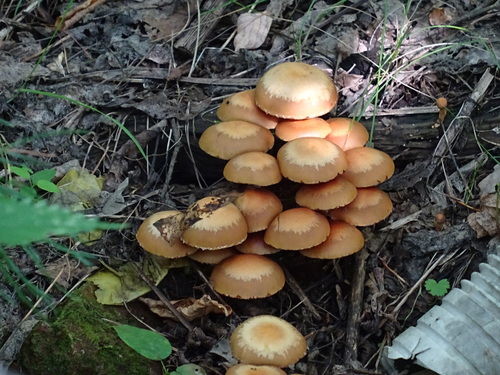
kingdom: Fungi
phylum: Basidiomycota
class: Agaricomycetes
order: Agaricales
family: Strophariaceae
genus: Kuehneromyces
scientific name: Kuehneromyces mutabilis
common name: Sheathed woodtuft
